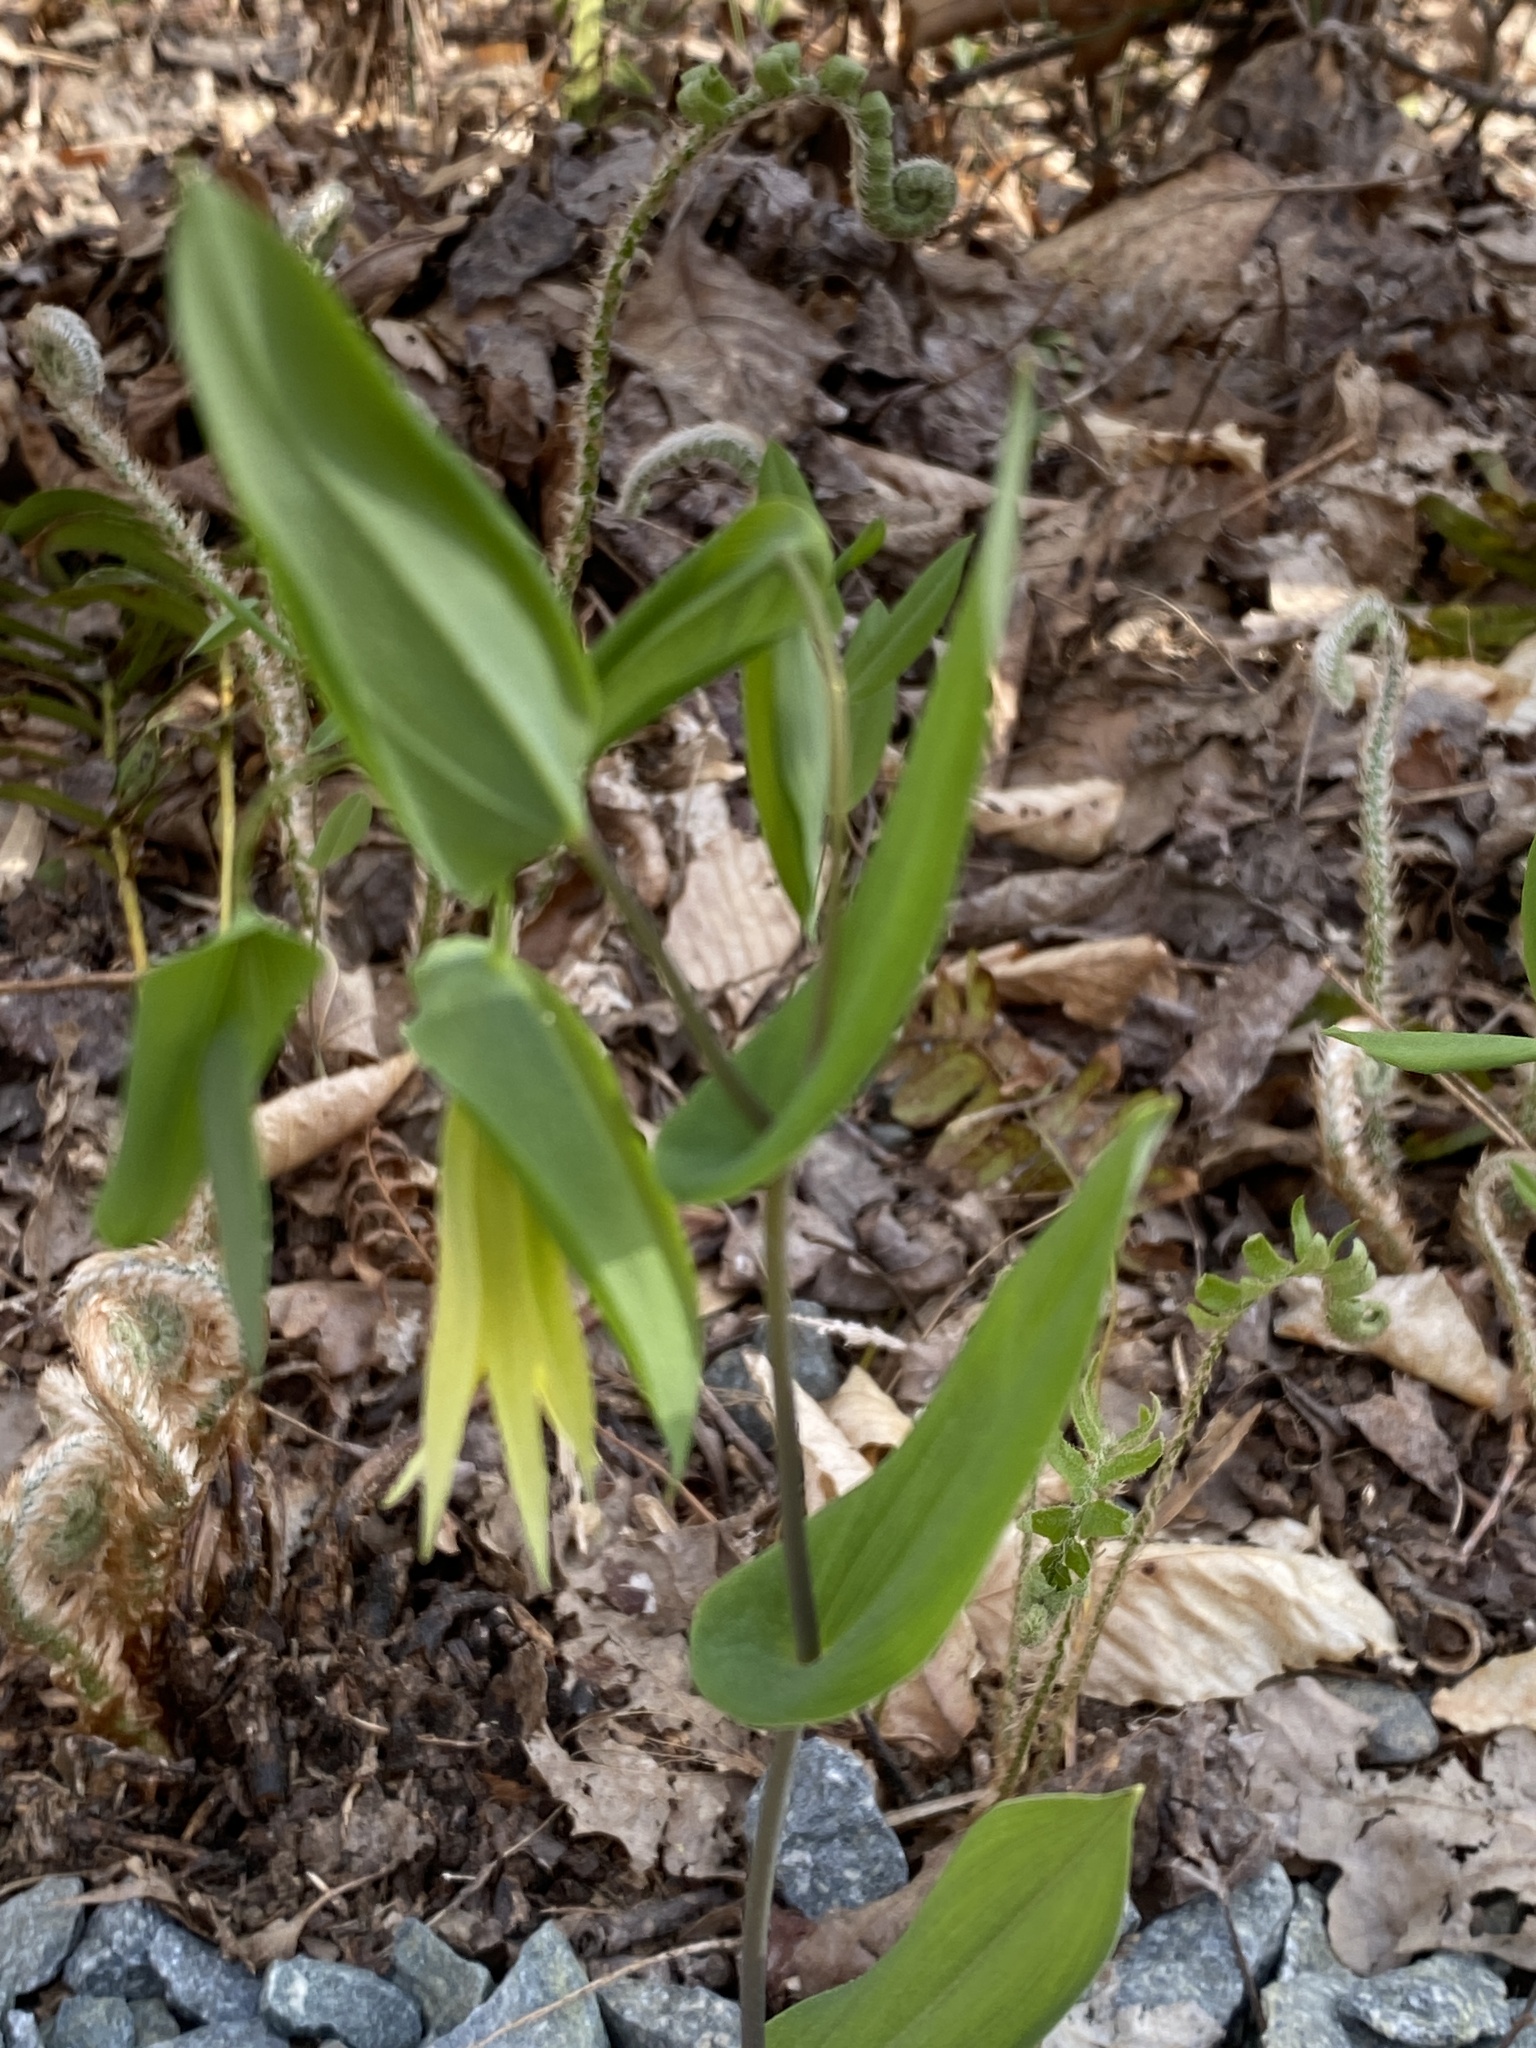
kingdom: Plantae
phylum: Tracheophyta
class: Liliopsida
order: Liliales
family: Colchicaceae
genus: Uvularia
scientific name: Uvularia perfoliata
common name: Perfoliate bellwort
